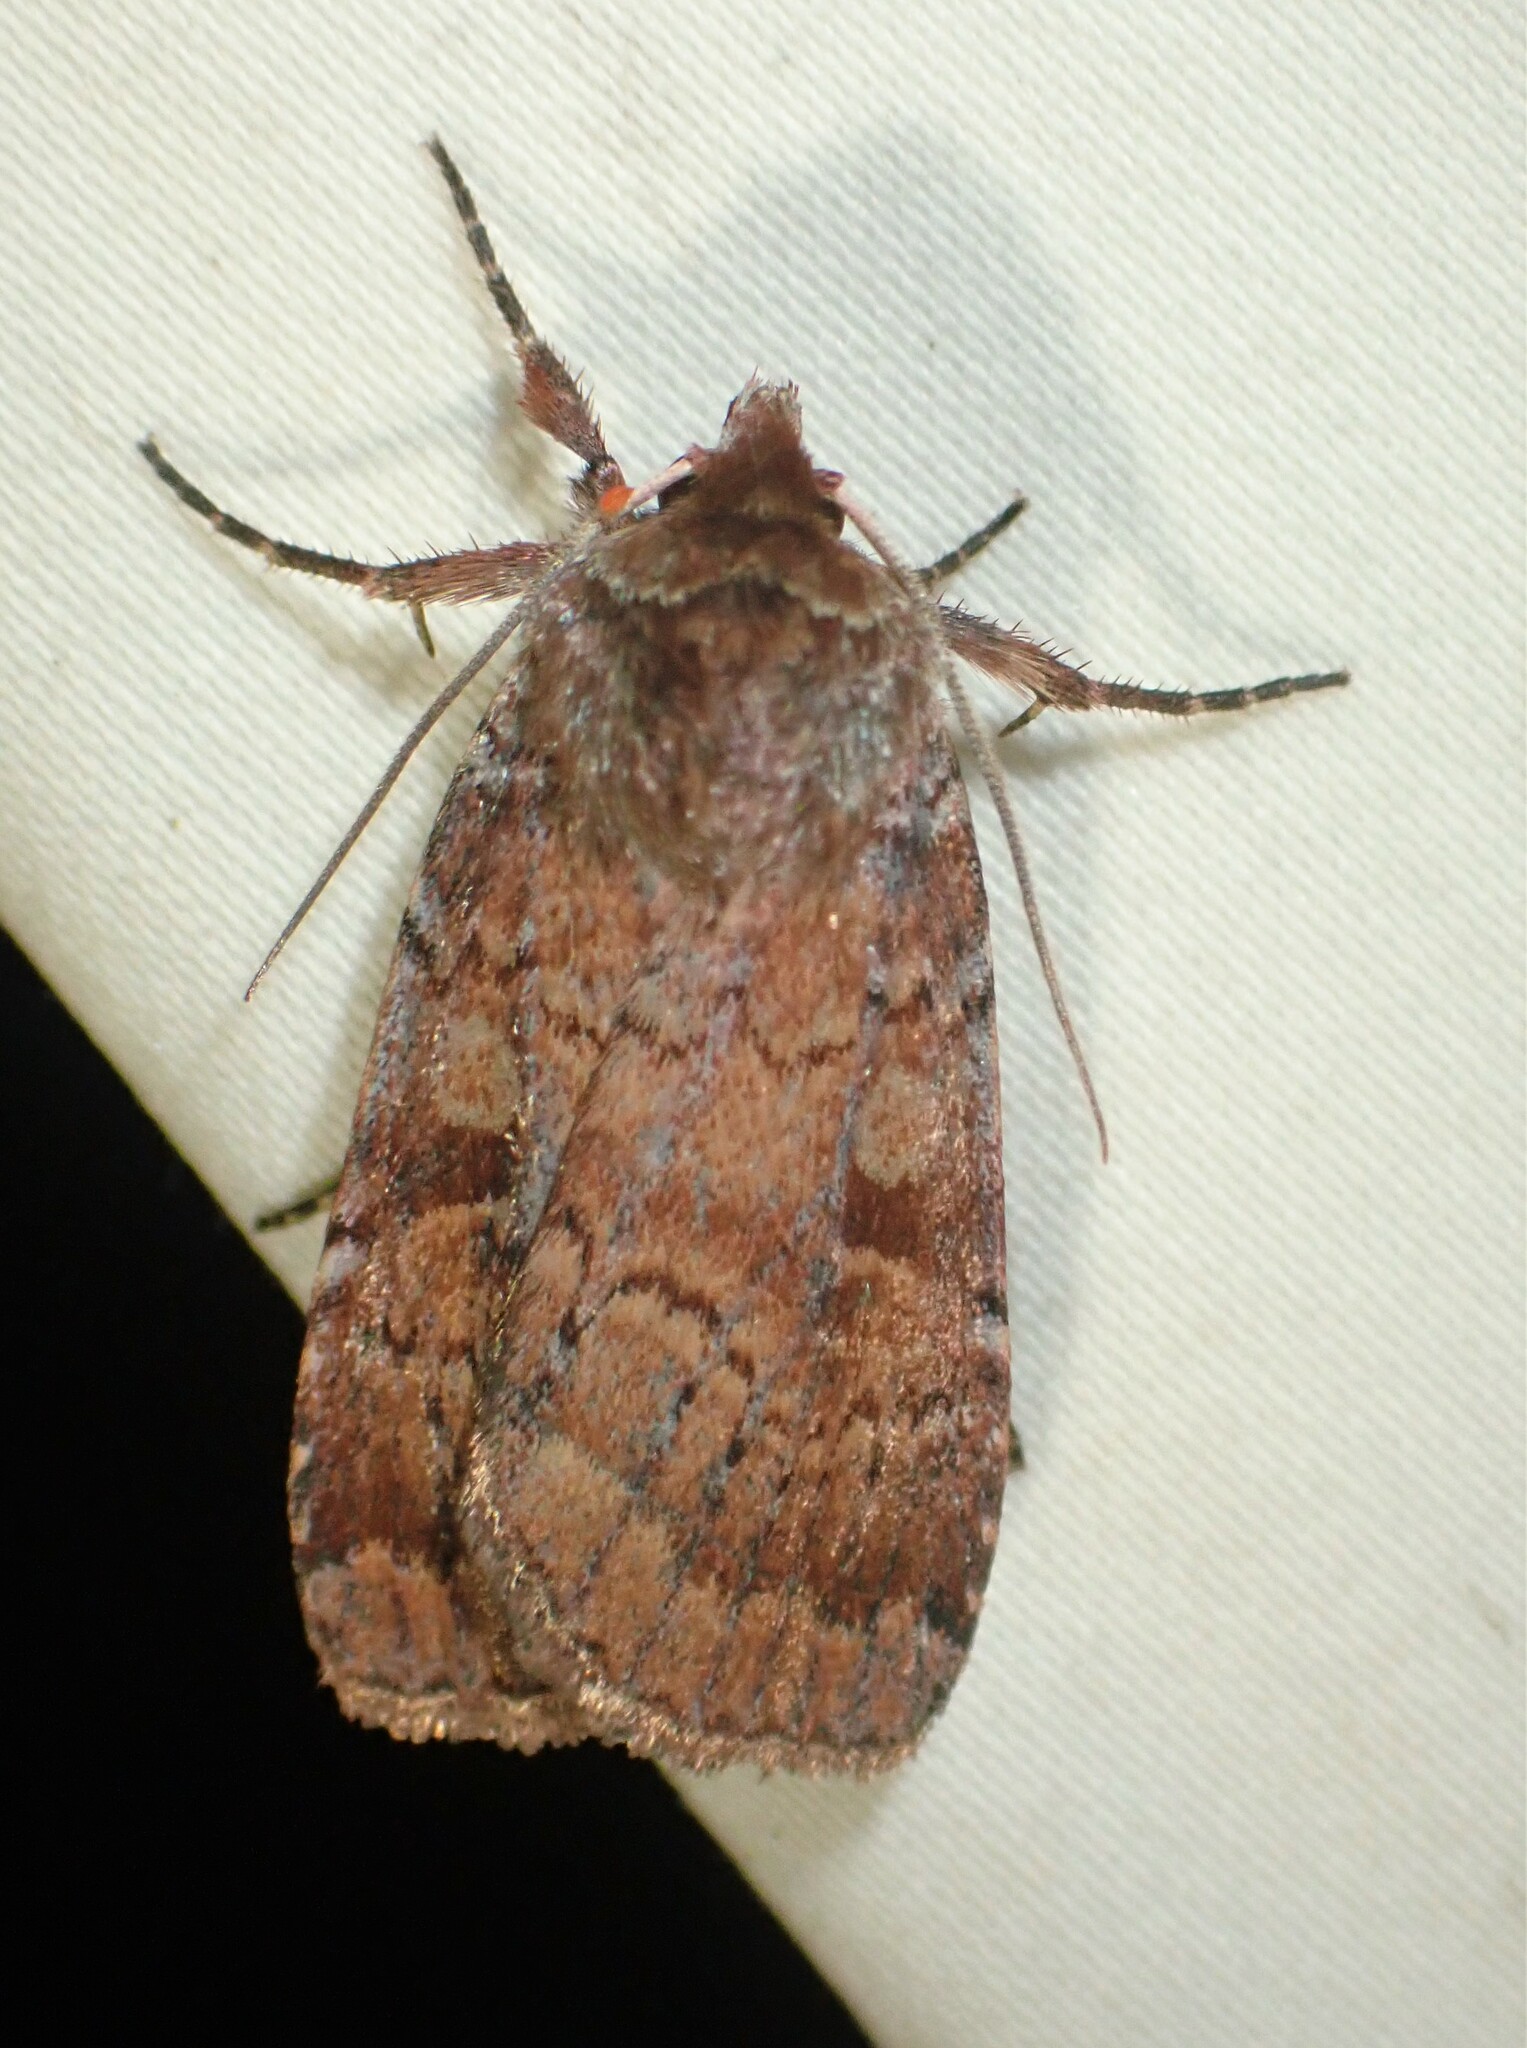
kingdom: Animalia
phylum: Arthropoda
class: Insecta
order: Lepidoptera
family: Noctuidae
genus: Lycophotia
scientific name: Lycophotia phyllophora
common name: Lycophotia moth
